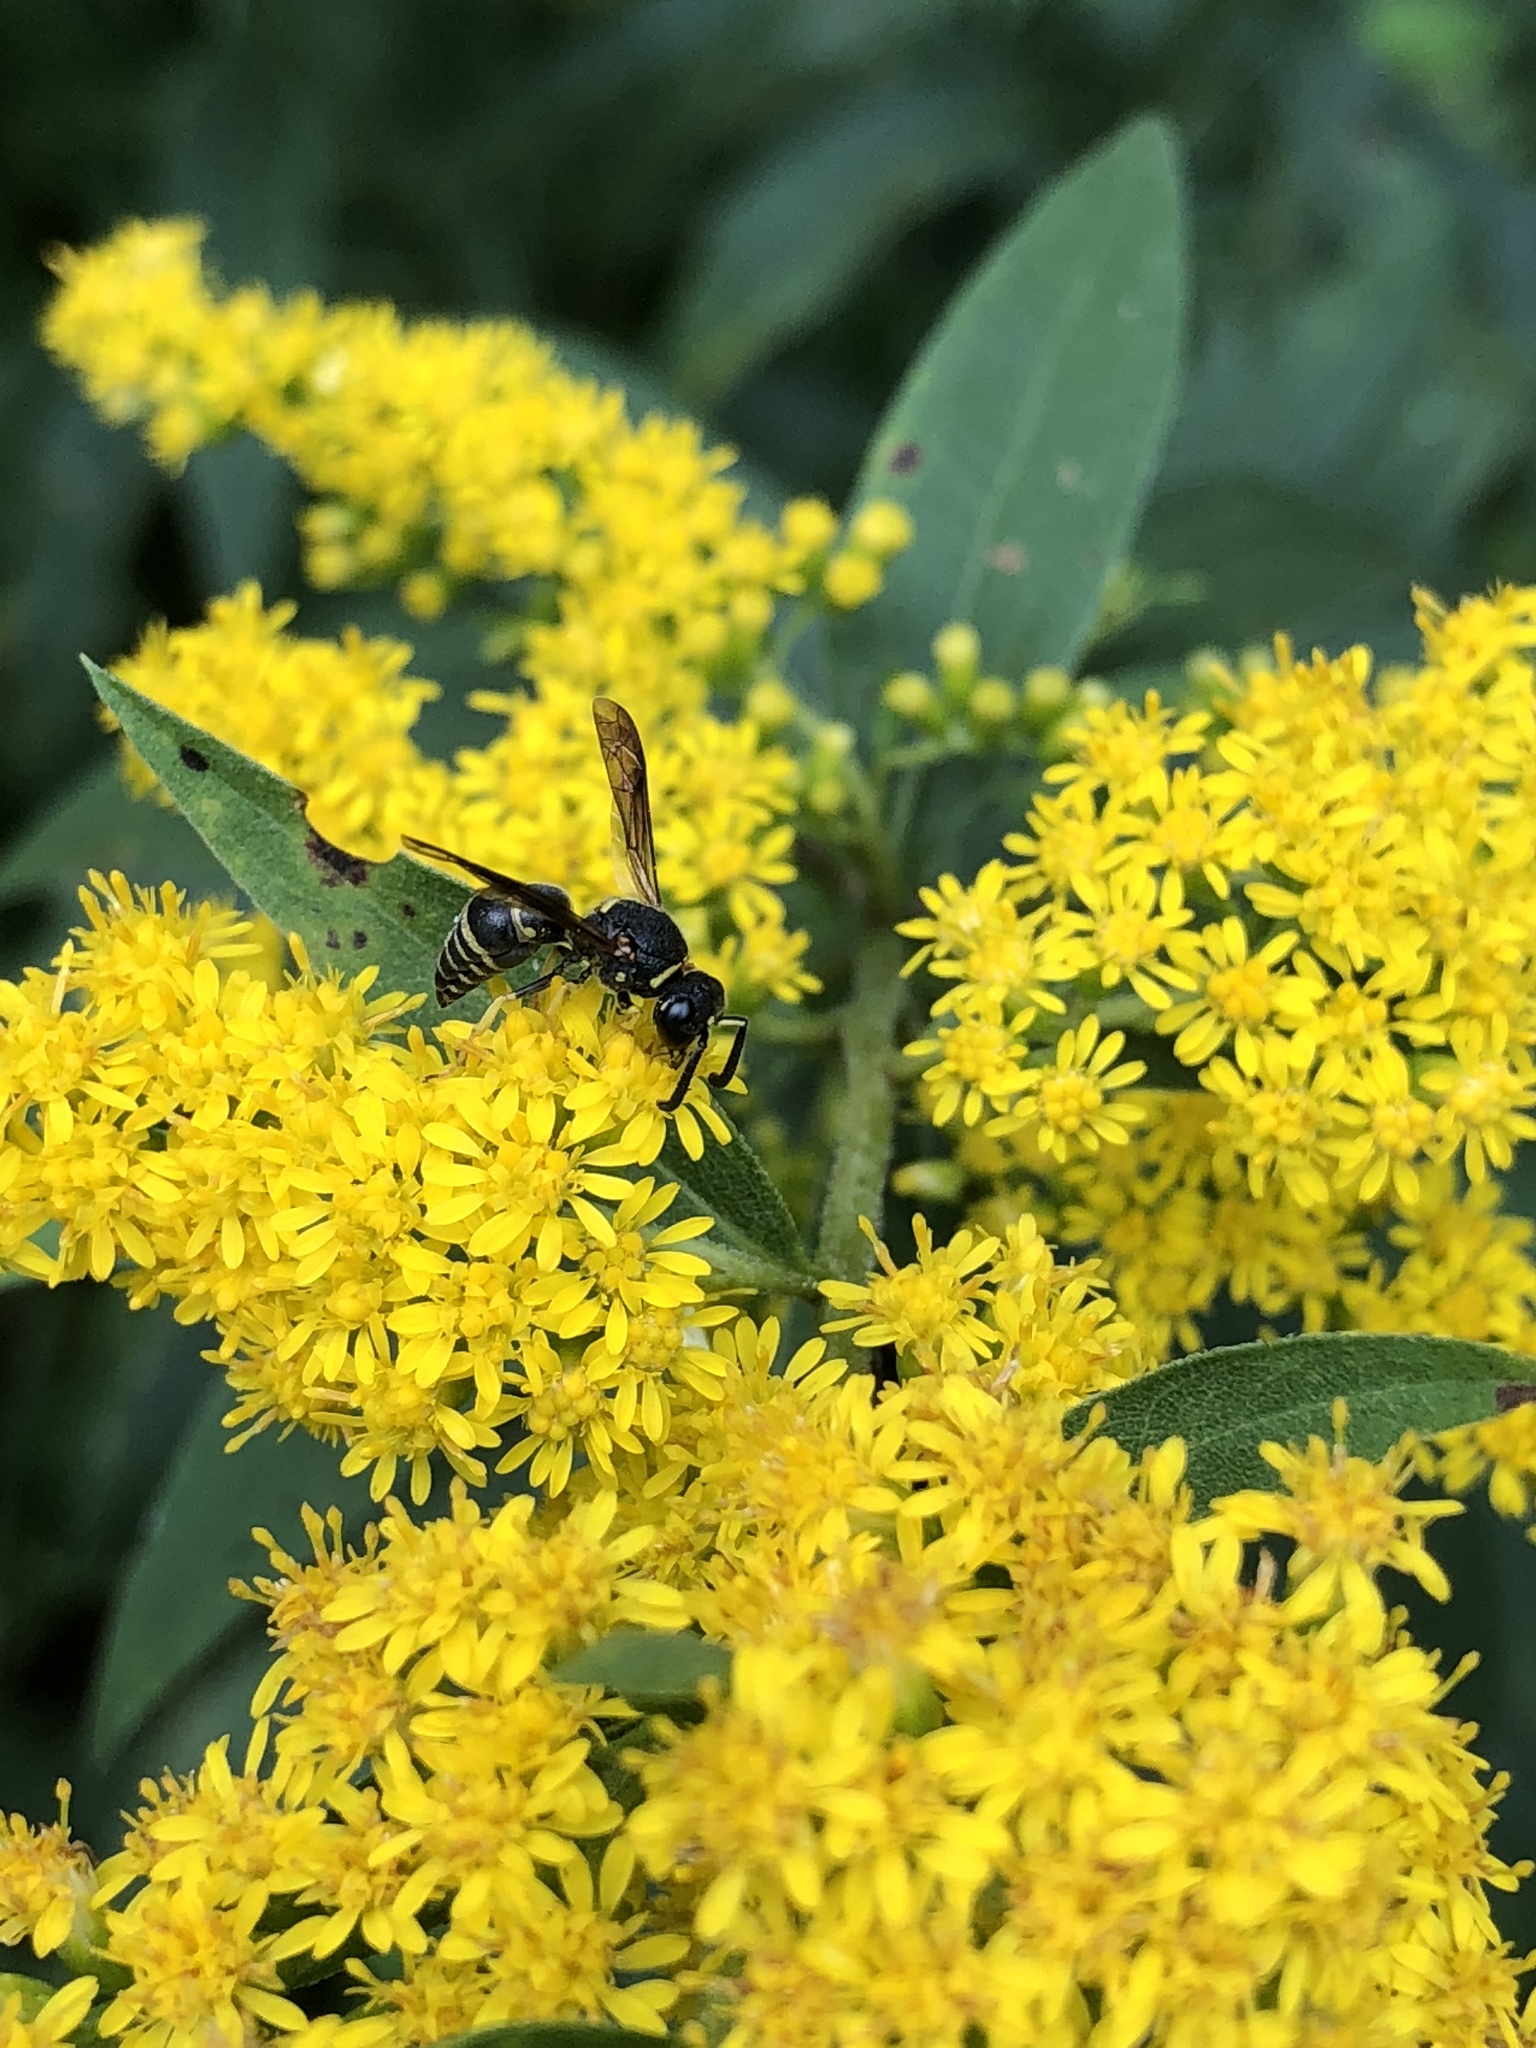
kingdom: Animalia
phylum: Arthropoda
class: Insecta
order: Hymenoptera
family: Eumenidae
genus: Euodynerus
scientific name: Euodynerus foraminatus
